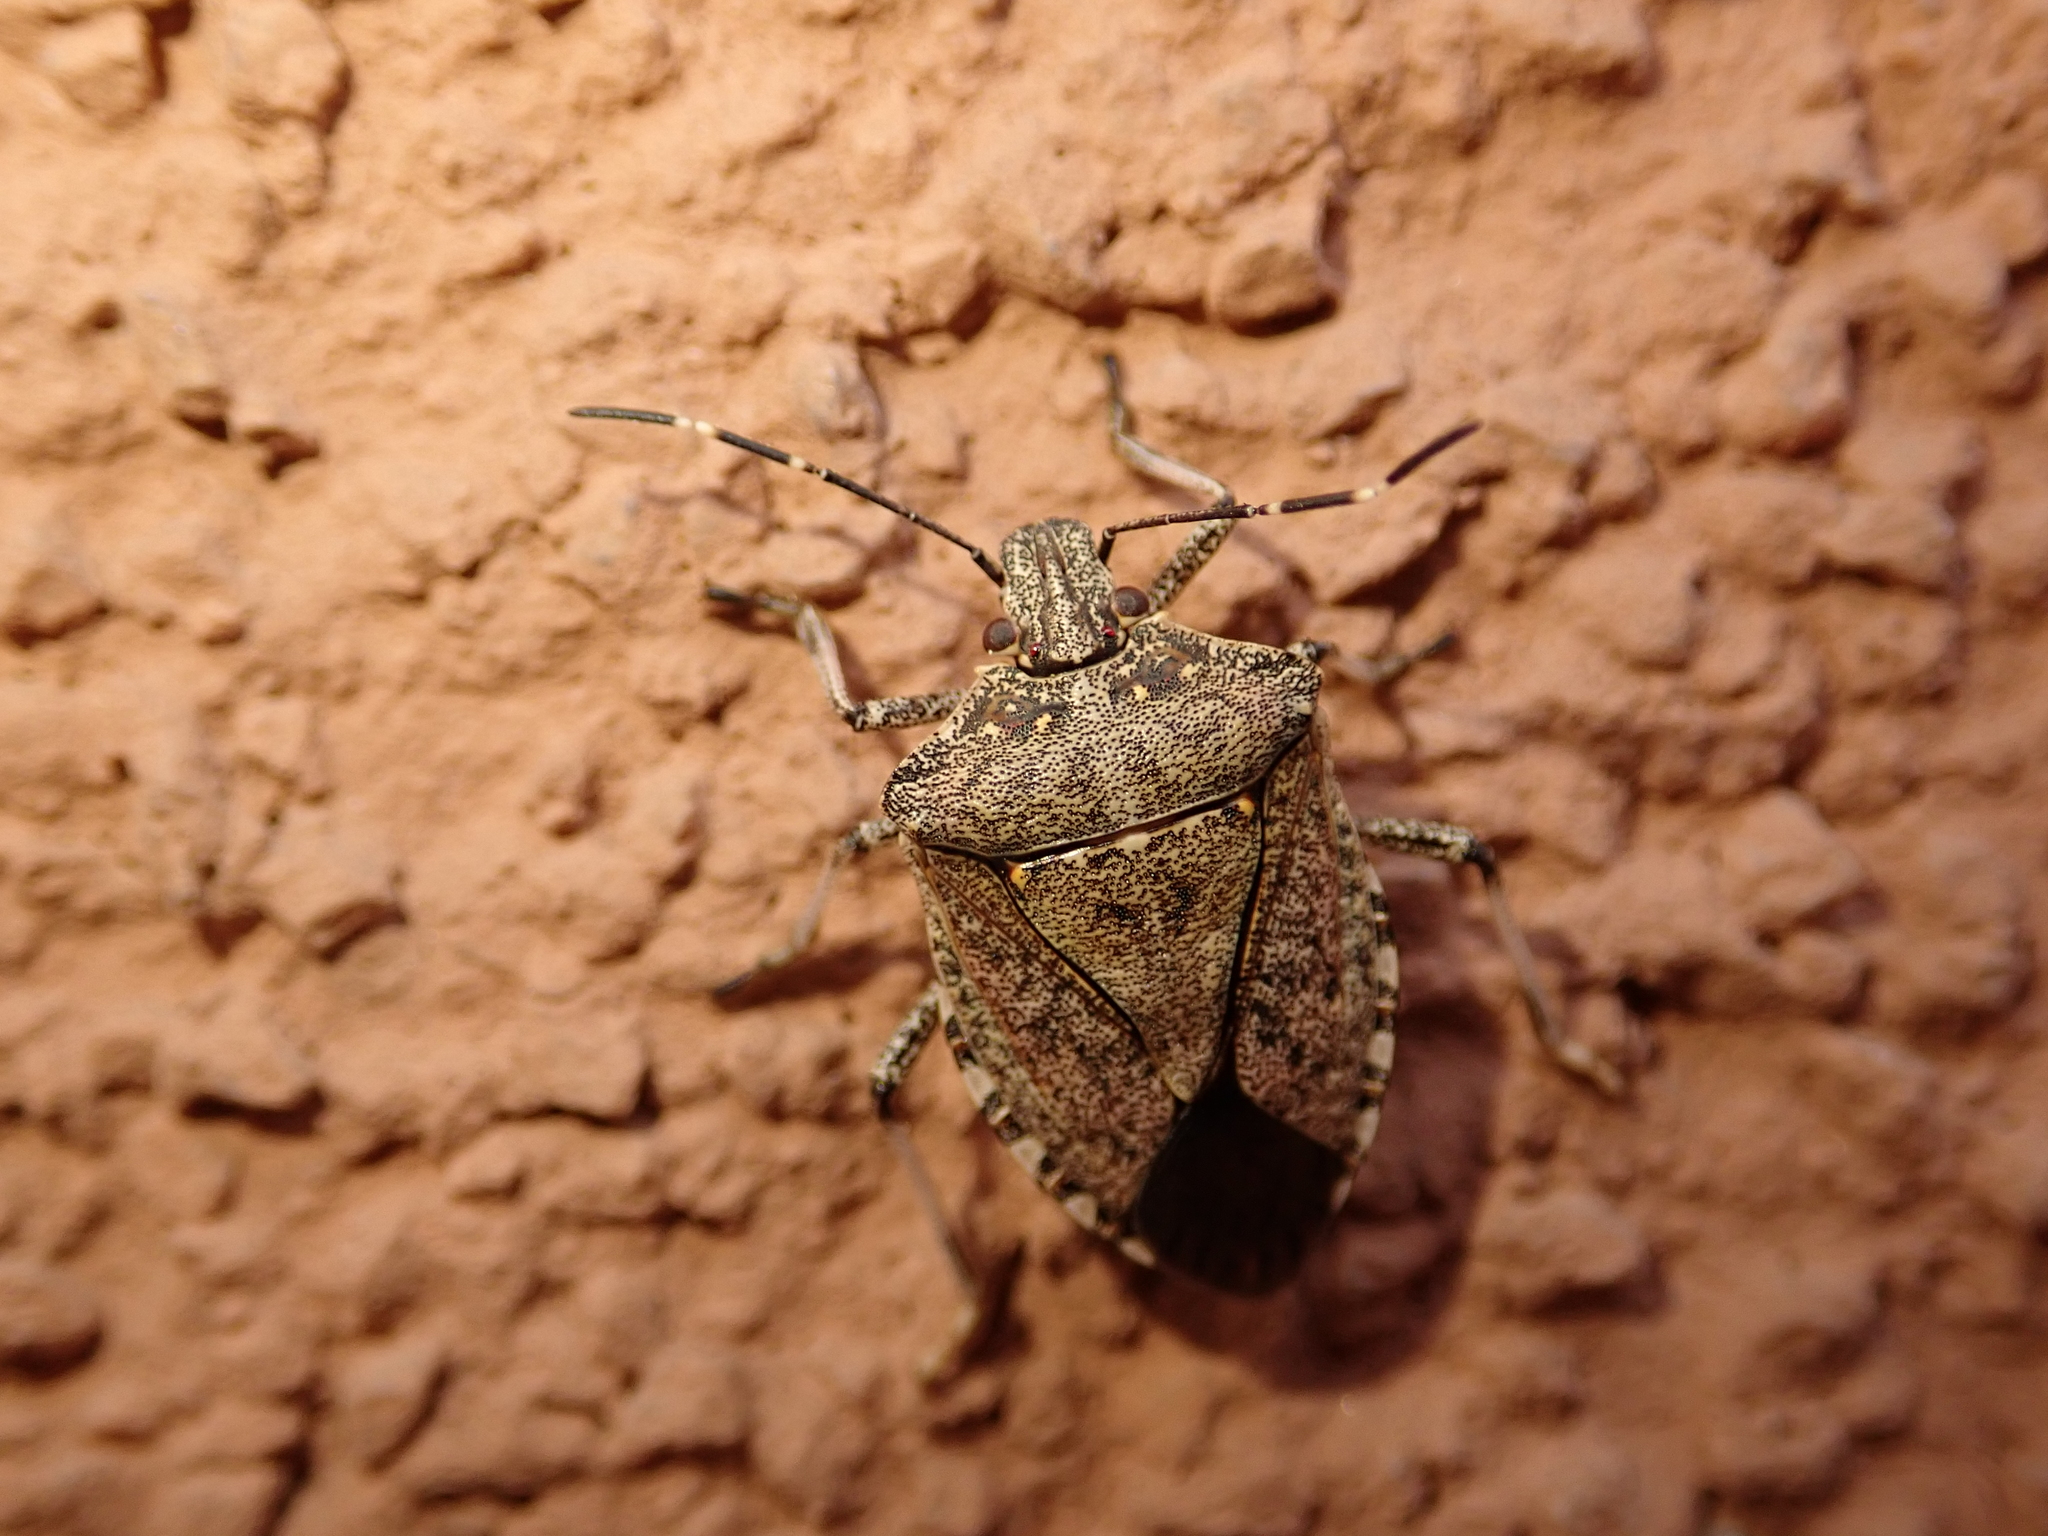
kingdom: Animalia
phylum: Arthropoda
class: Insecta
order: Hemiptera
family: Pentatomidae
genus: Halyomorpha
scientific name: Halyomorpha halys
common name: Brown marmorated stink bug
